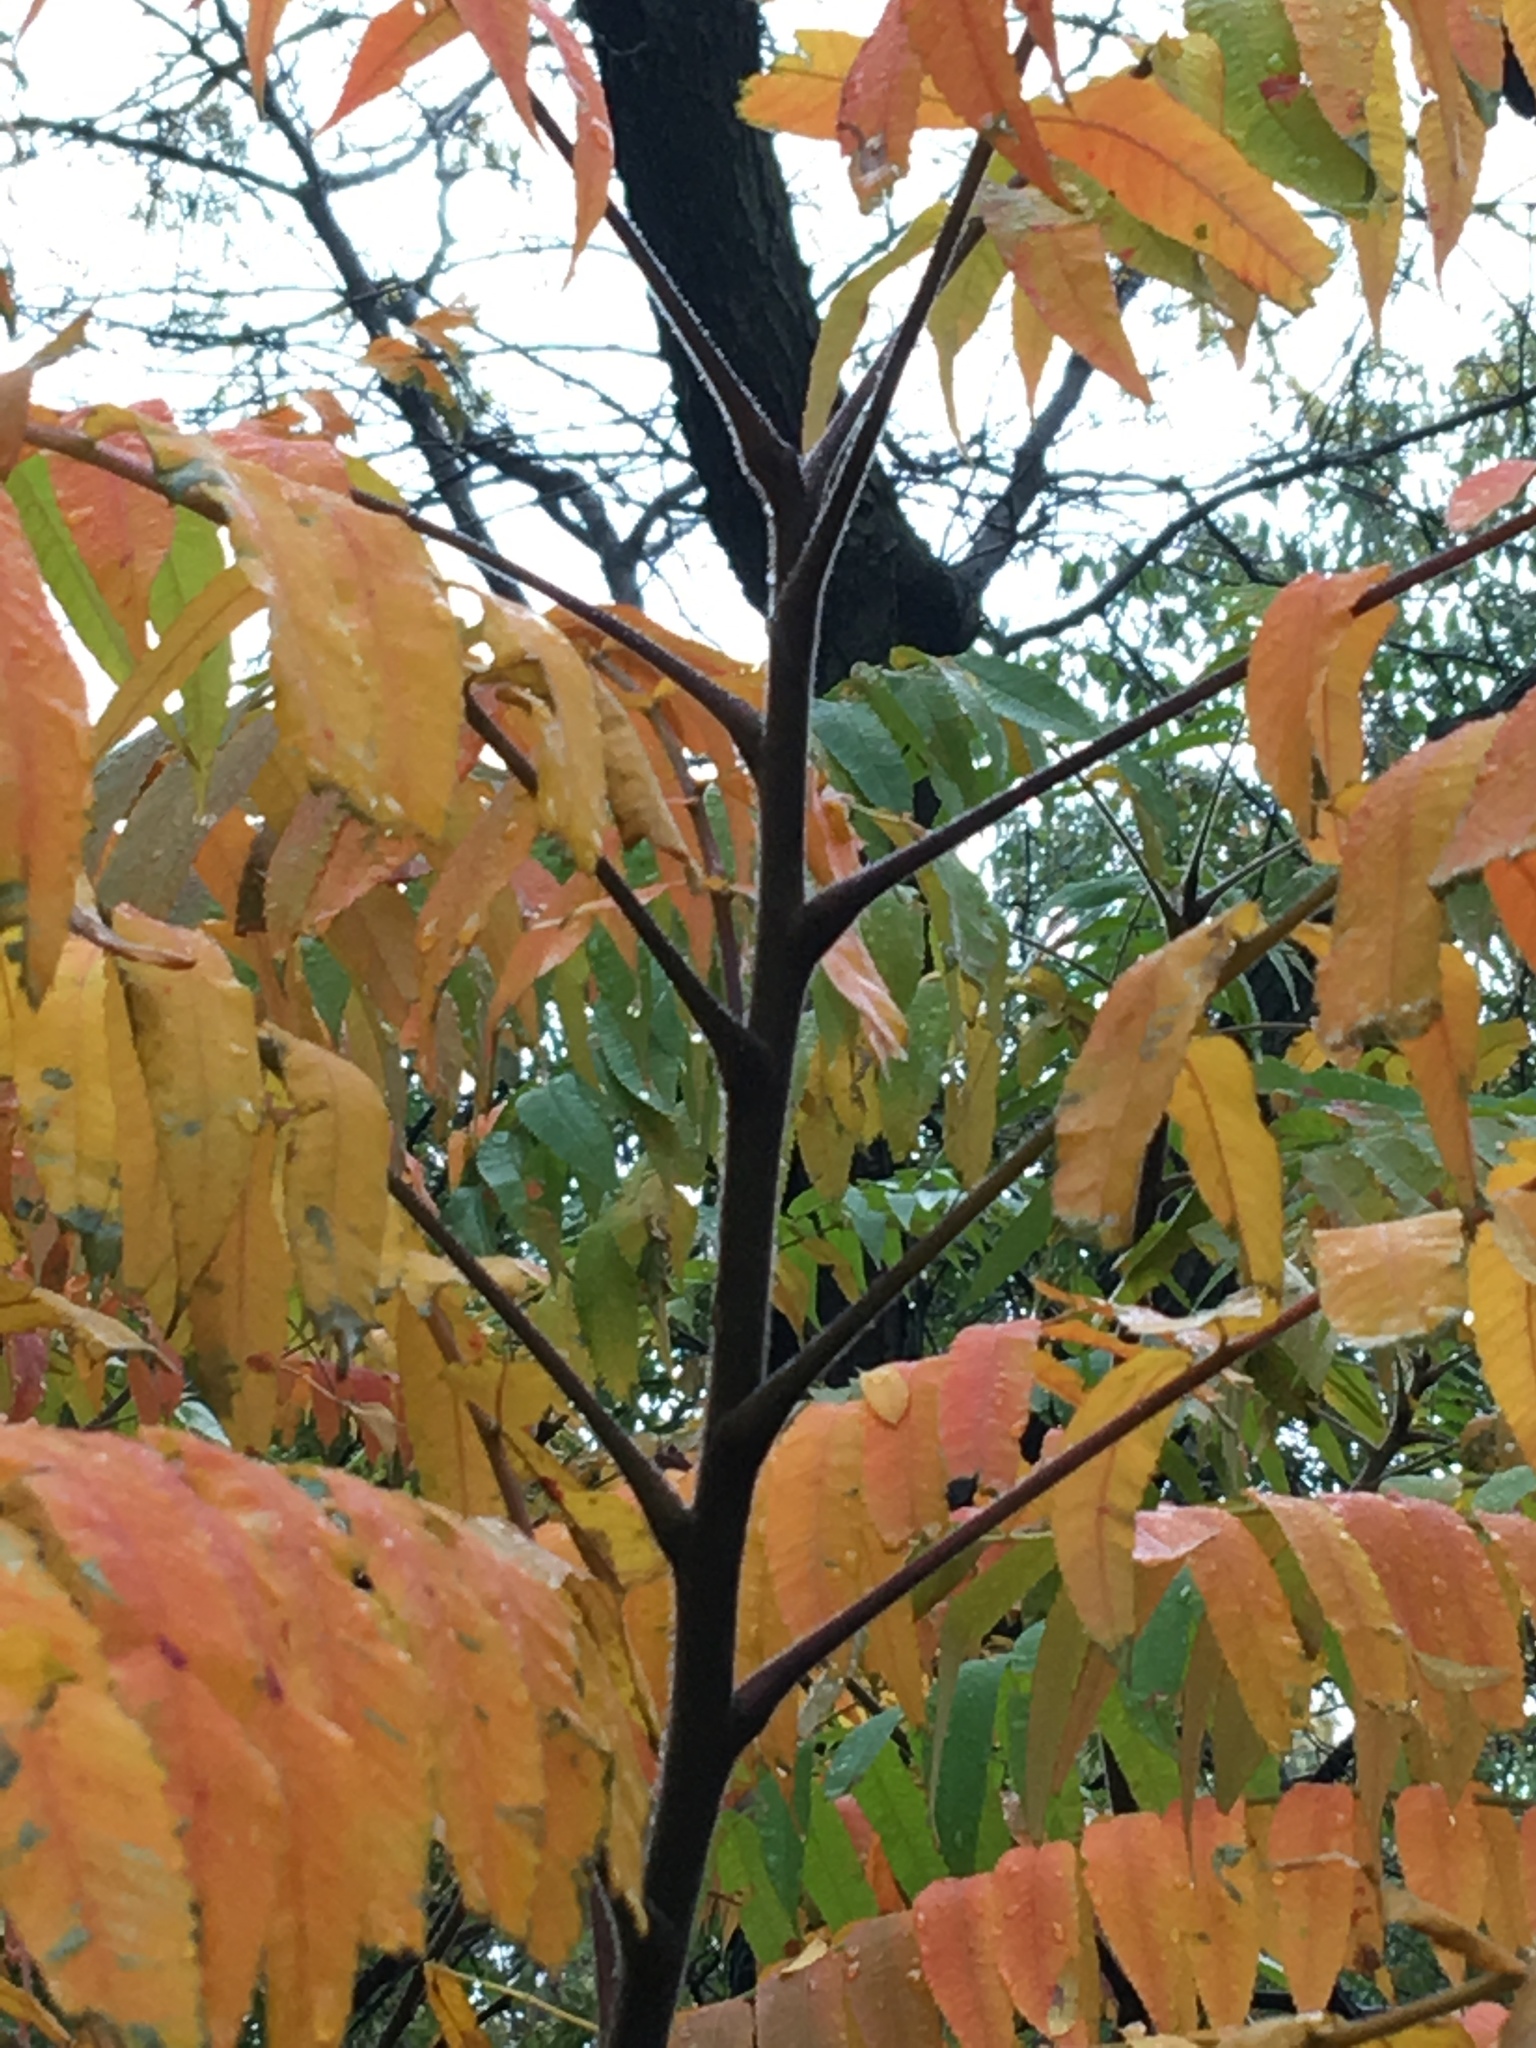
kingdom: Plantae
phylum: Tracheophyta
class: Magnoliopsida
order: Sapindales
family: Anacardiaceae
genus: Rhus
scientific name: Rhus typhina
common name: Staghorn sumac
